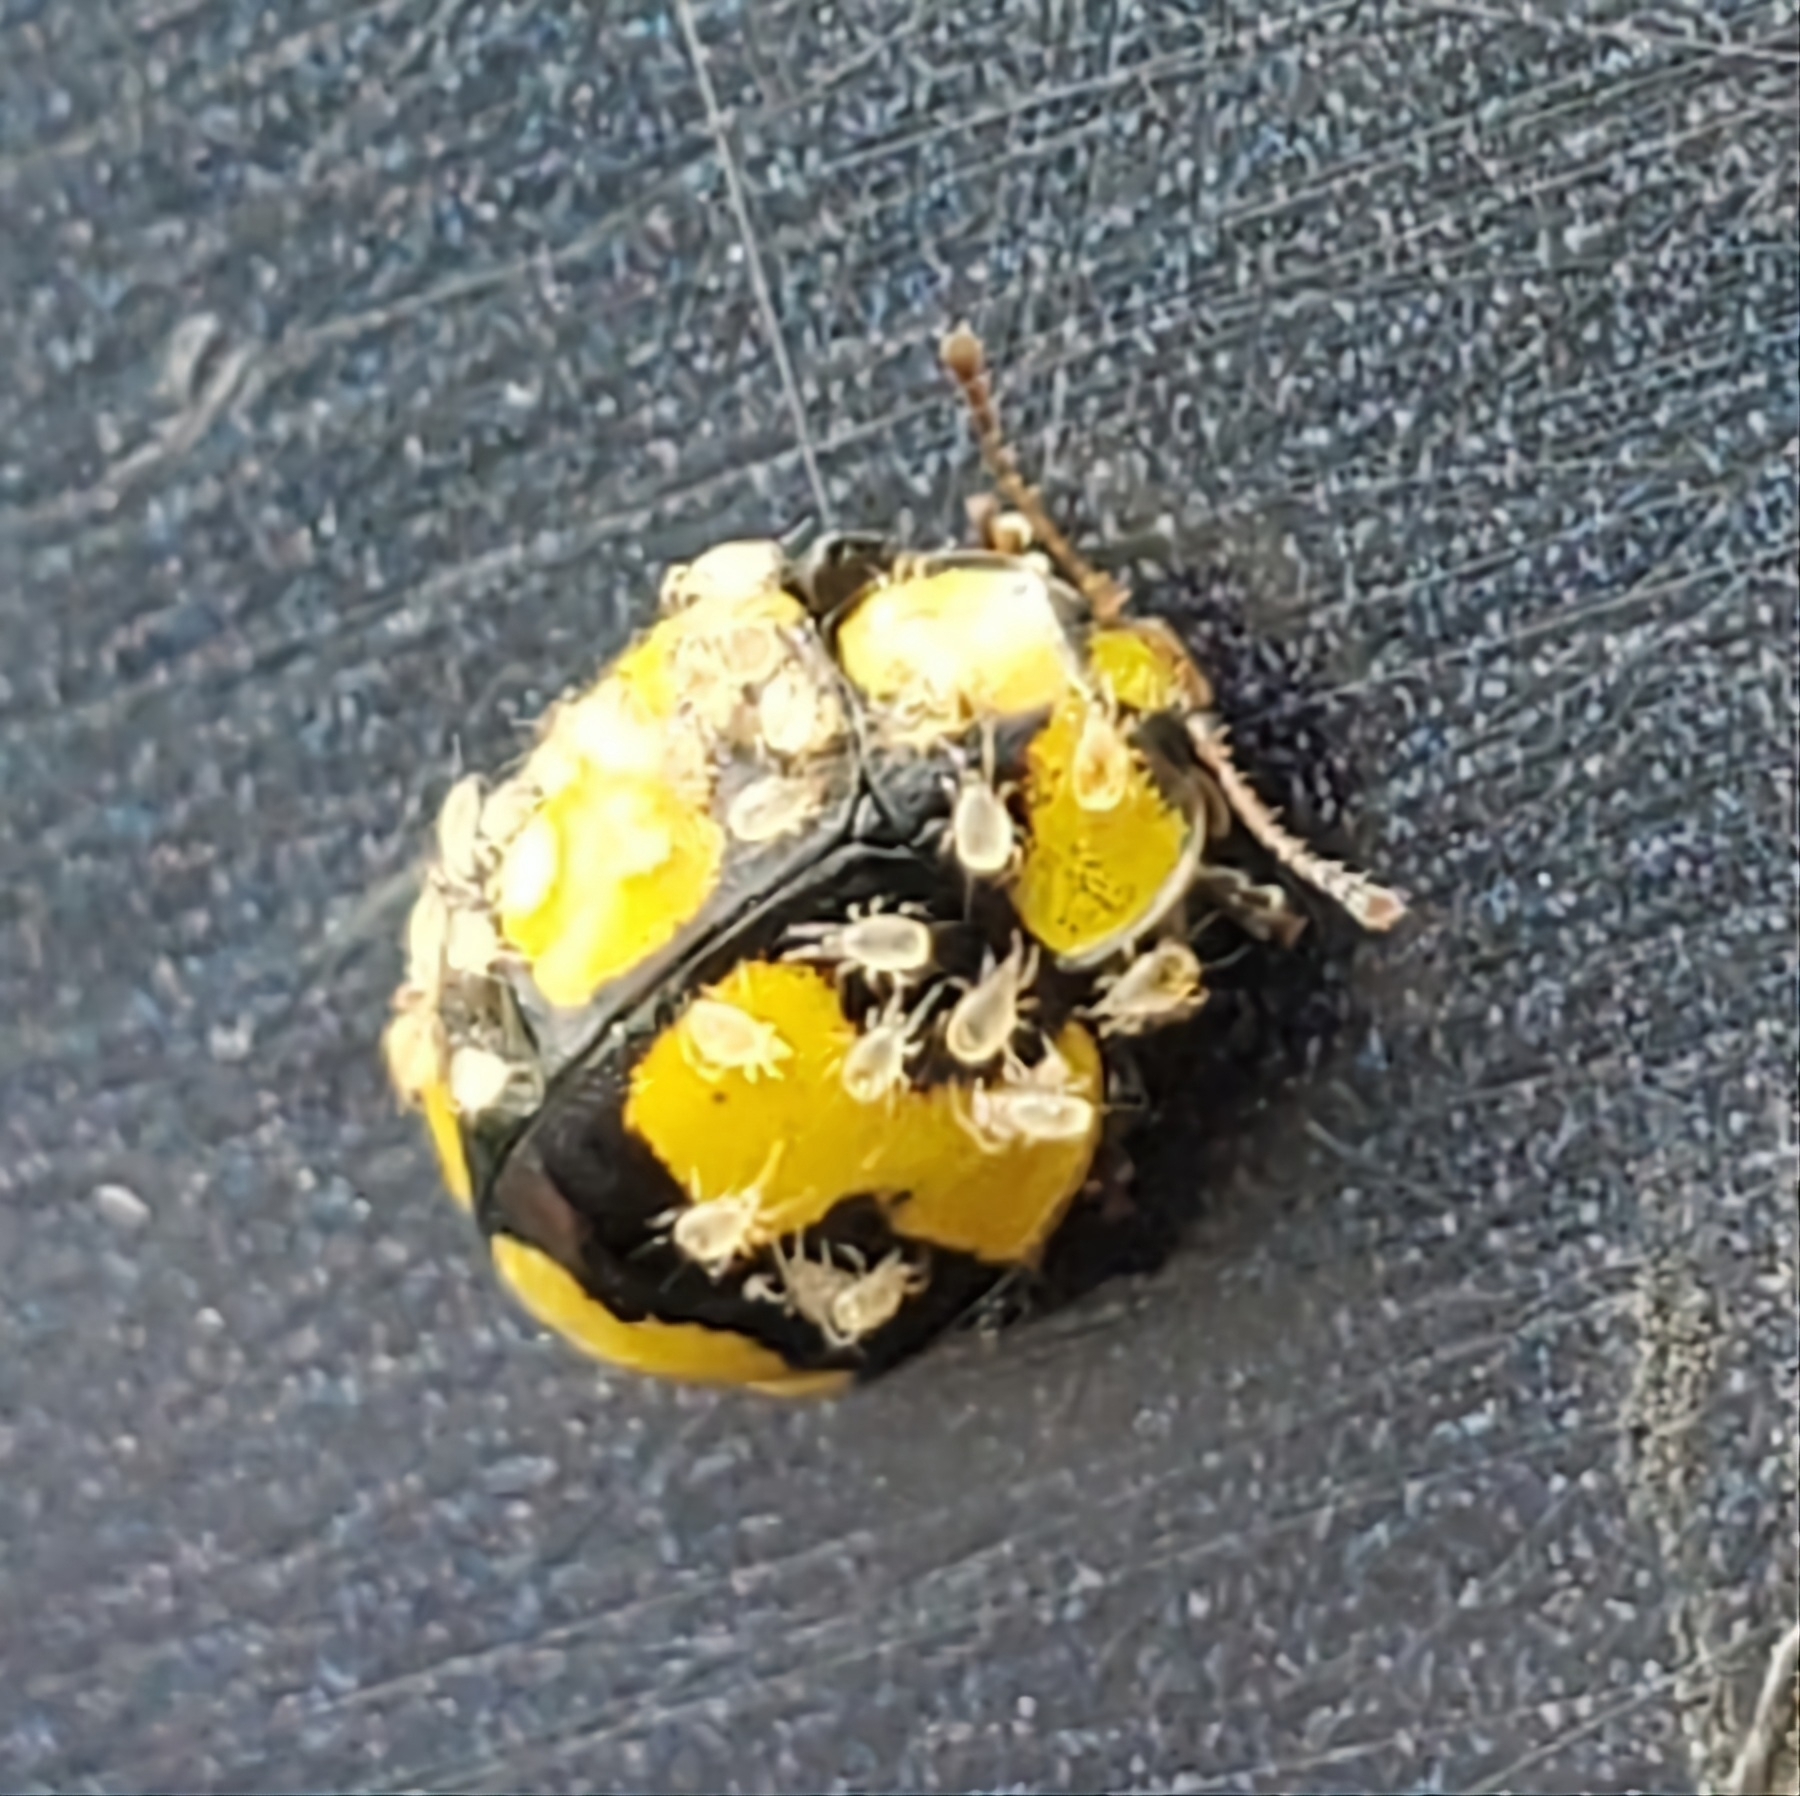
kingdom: Animalia
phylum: Arthropoda
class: Insecta
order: Coleoptera
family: Coccinellidae
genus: Illeis
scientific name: Illeis galbula
